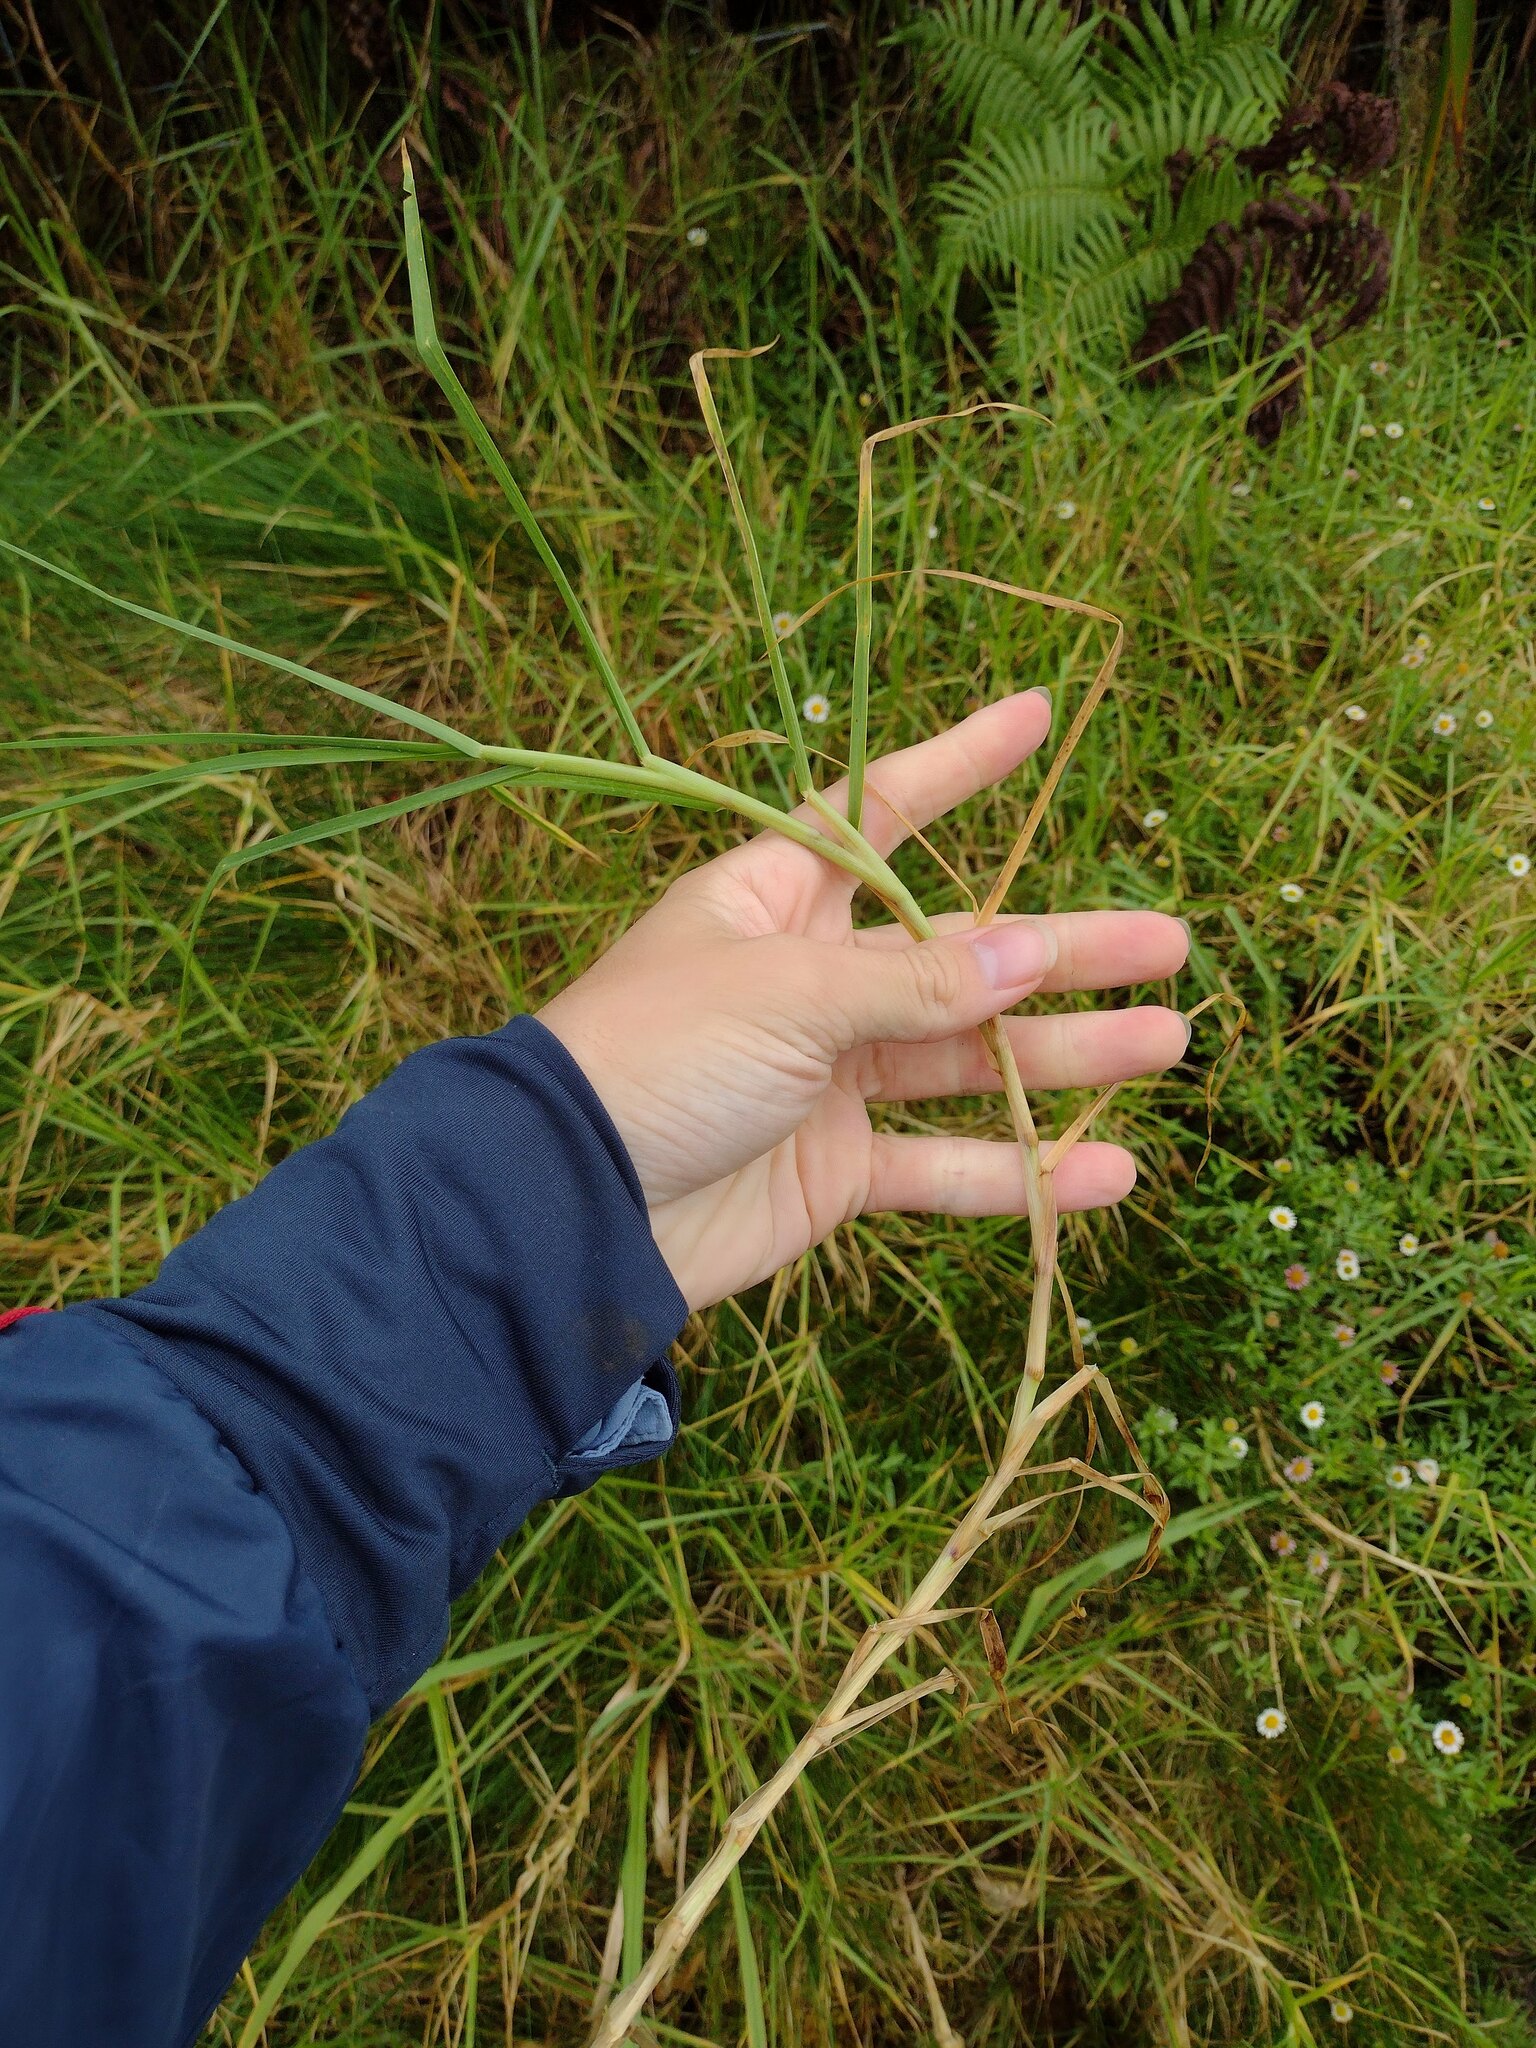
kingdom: Plantae
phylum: Tracheophyta
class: Liliopsida
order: Poales
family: Poaceae
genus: Cenchrus
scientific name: Cenchrus clandestinus
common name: Kikuyugrass
